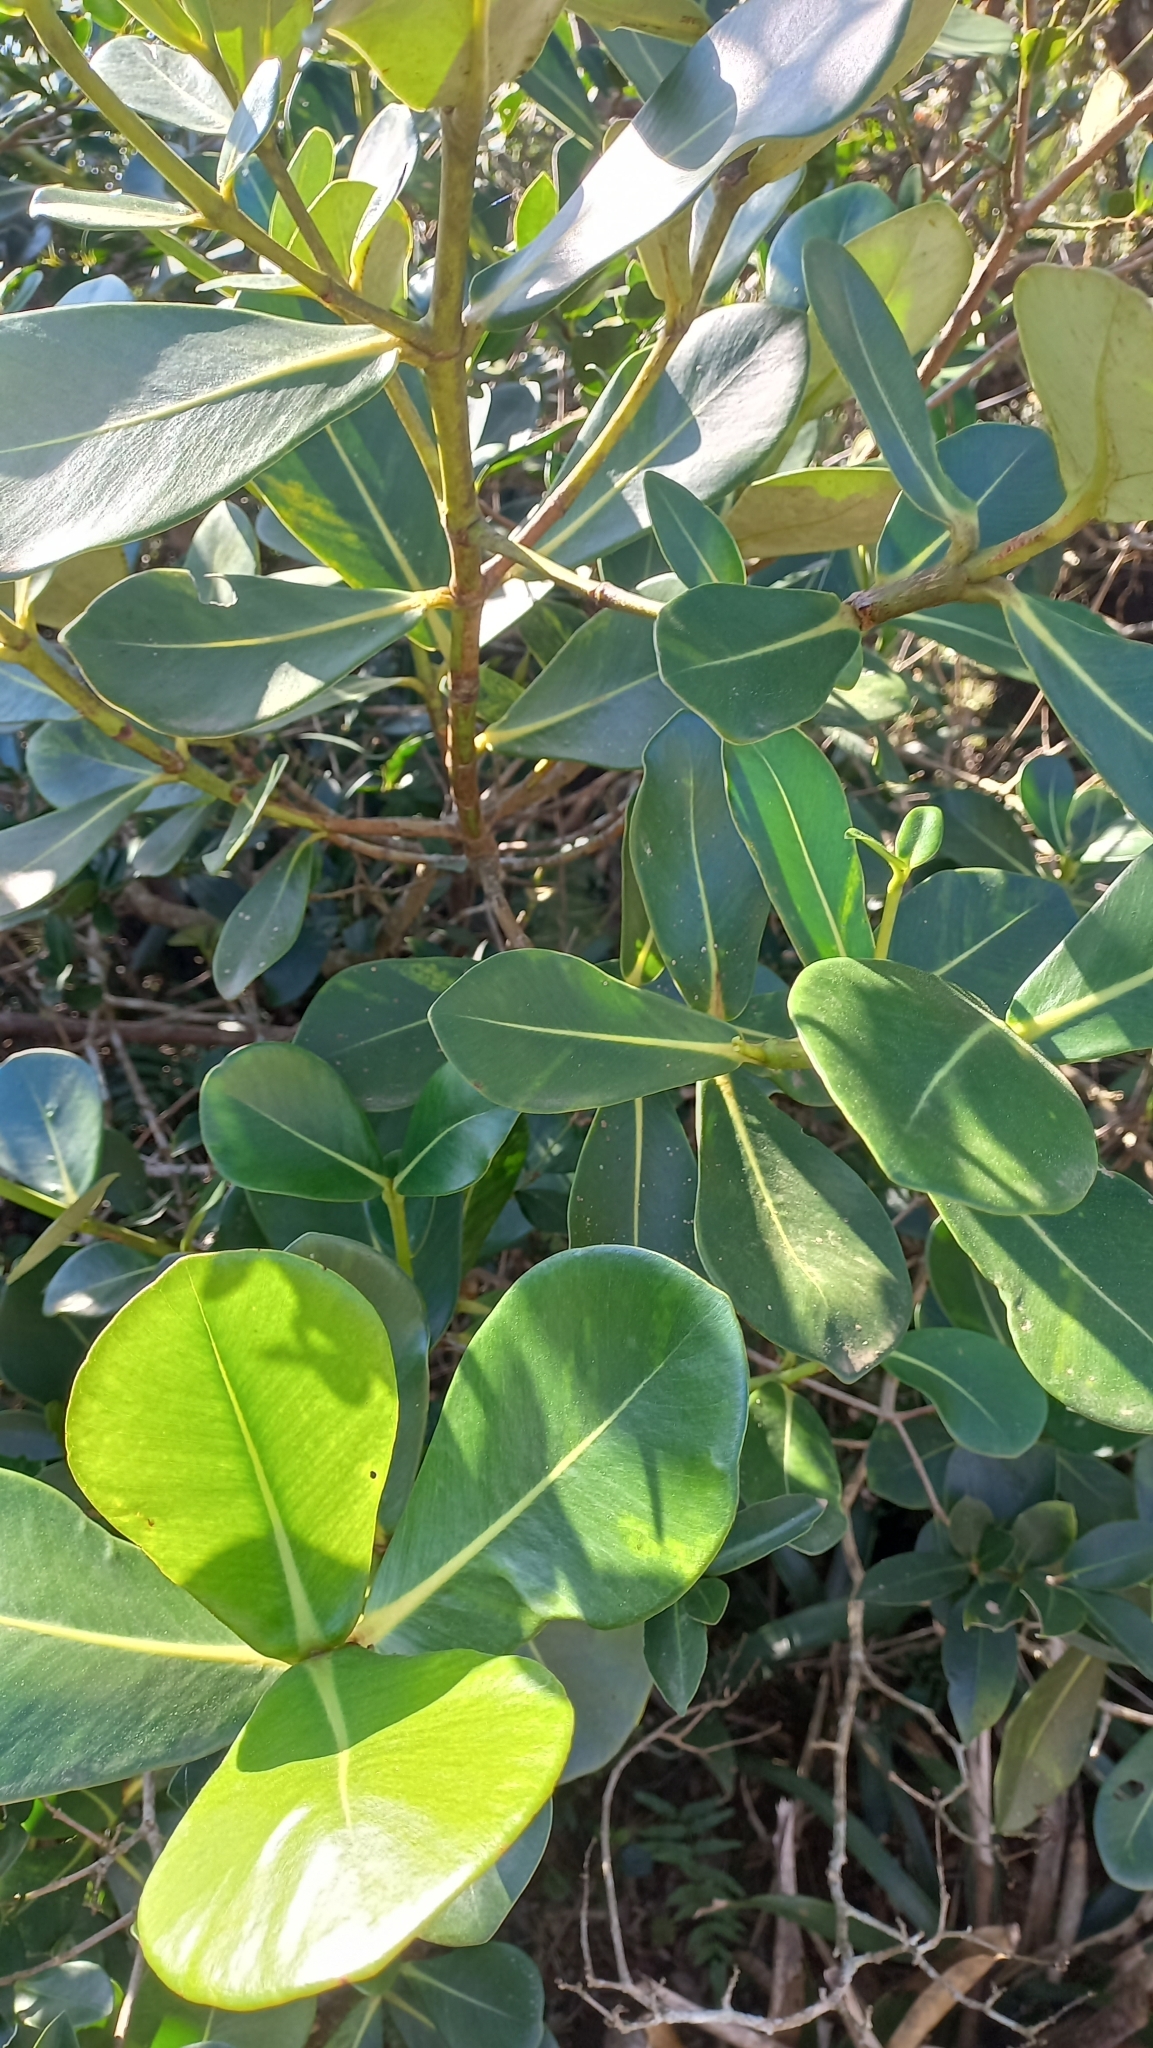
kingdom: Plantae
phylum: Tracheophyta
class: Magnoliopsida
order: Malpighiales
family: Clusiaceae
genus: Clusia
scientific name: Clusia criuva
